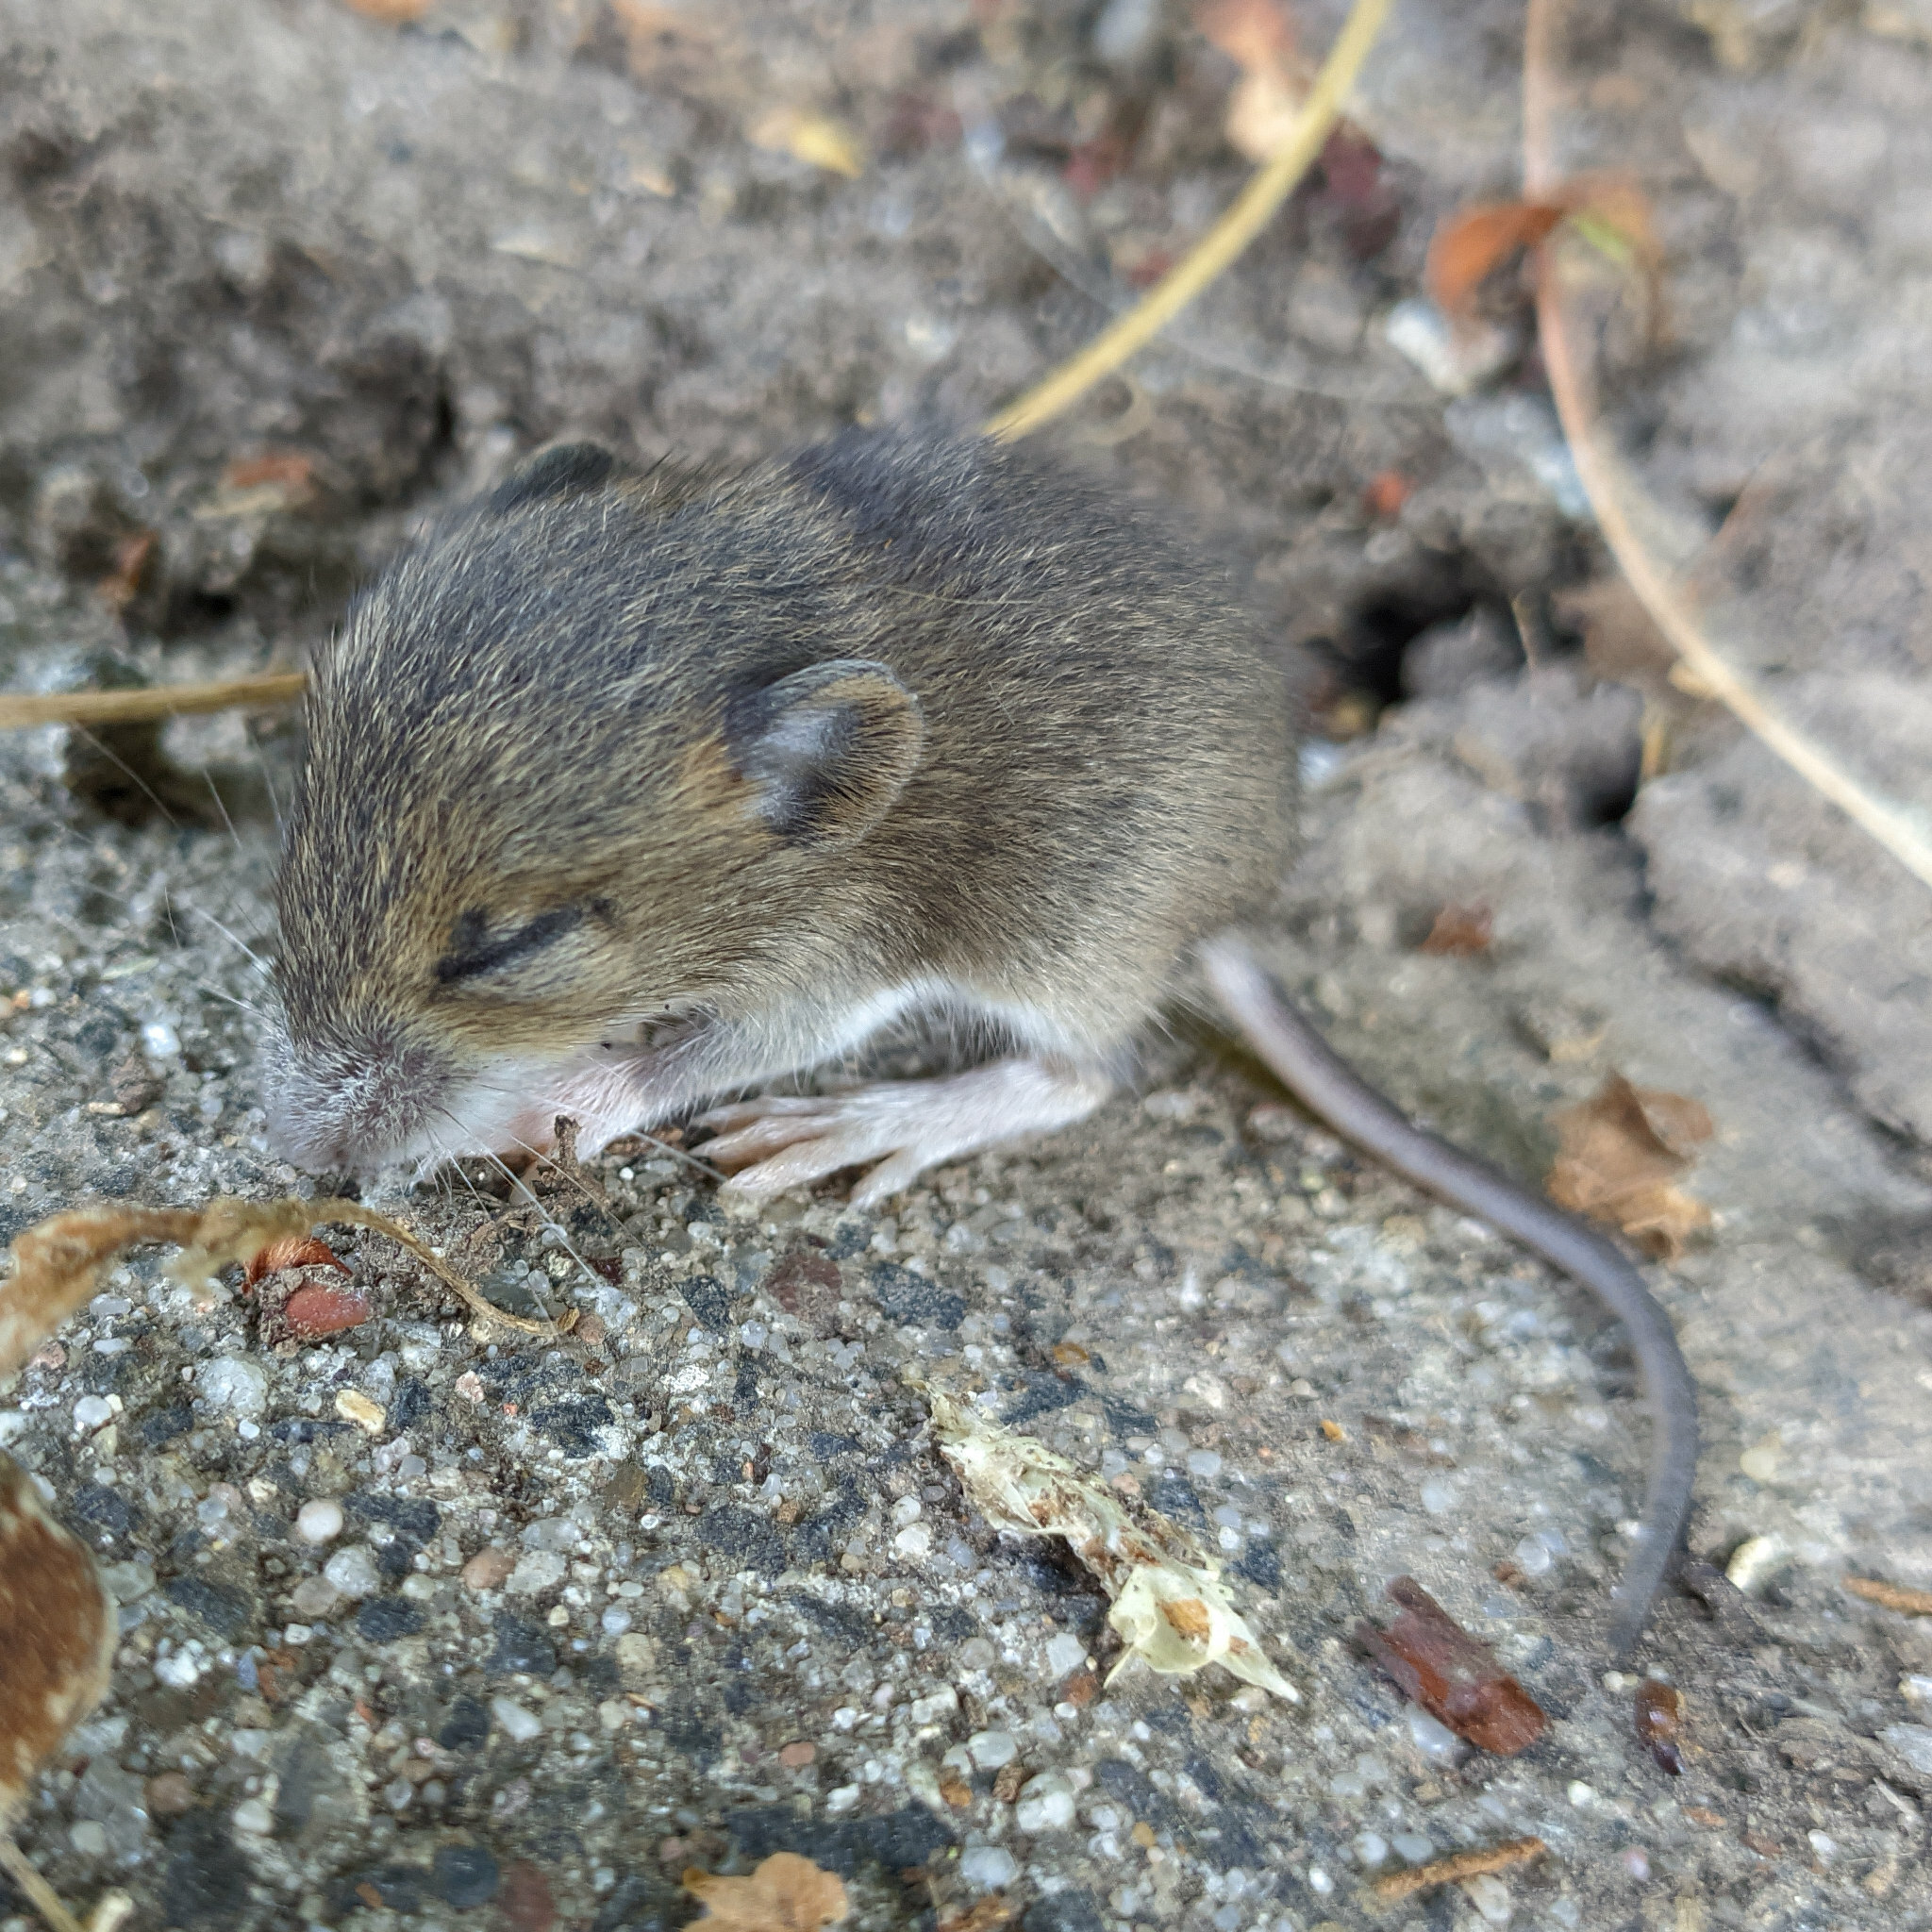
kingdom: Animalia
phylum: Chordata
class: Mammalia
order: Rodentia
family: Muridae
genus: Apodemus
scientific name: Apodemus sylvaticus
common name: Wood mouse
